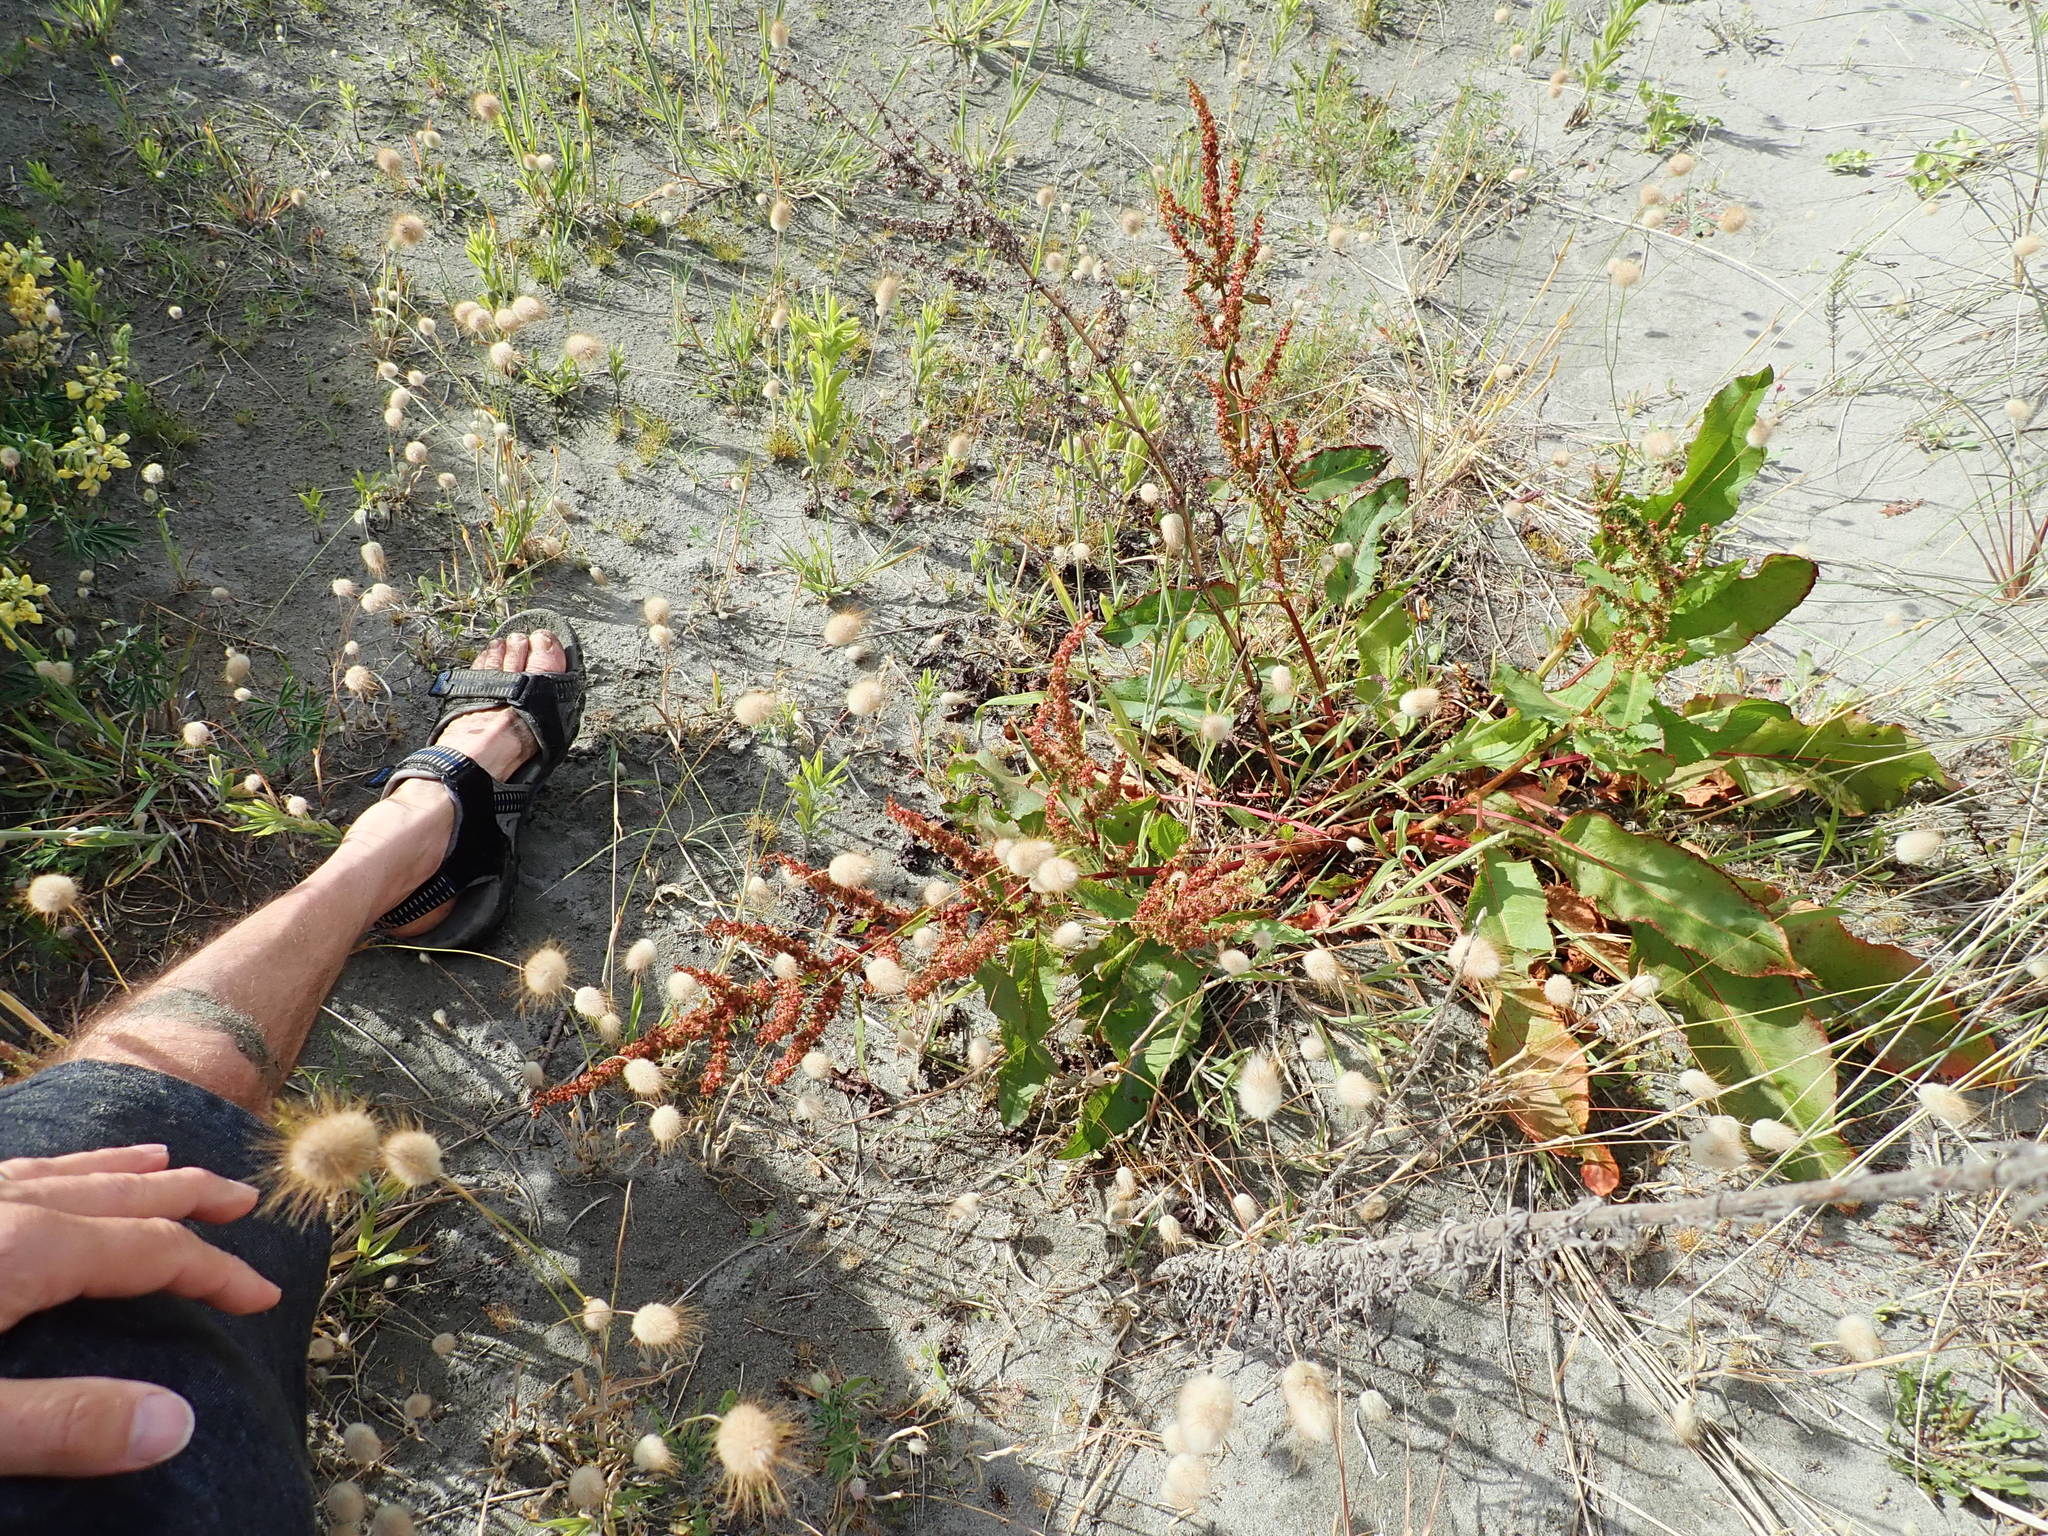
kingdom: Plantae
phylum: Tracheophyta
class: Magnoliopsida
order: Caryophyllales
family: Polygonaceae
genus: Rumex
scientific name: Rumex crispus
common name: Curled dock
